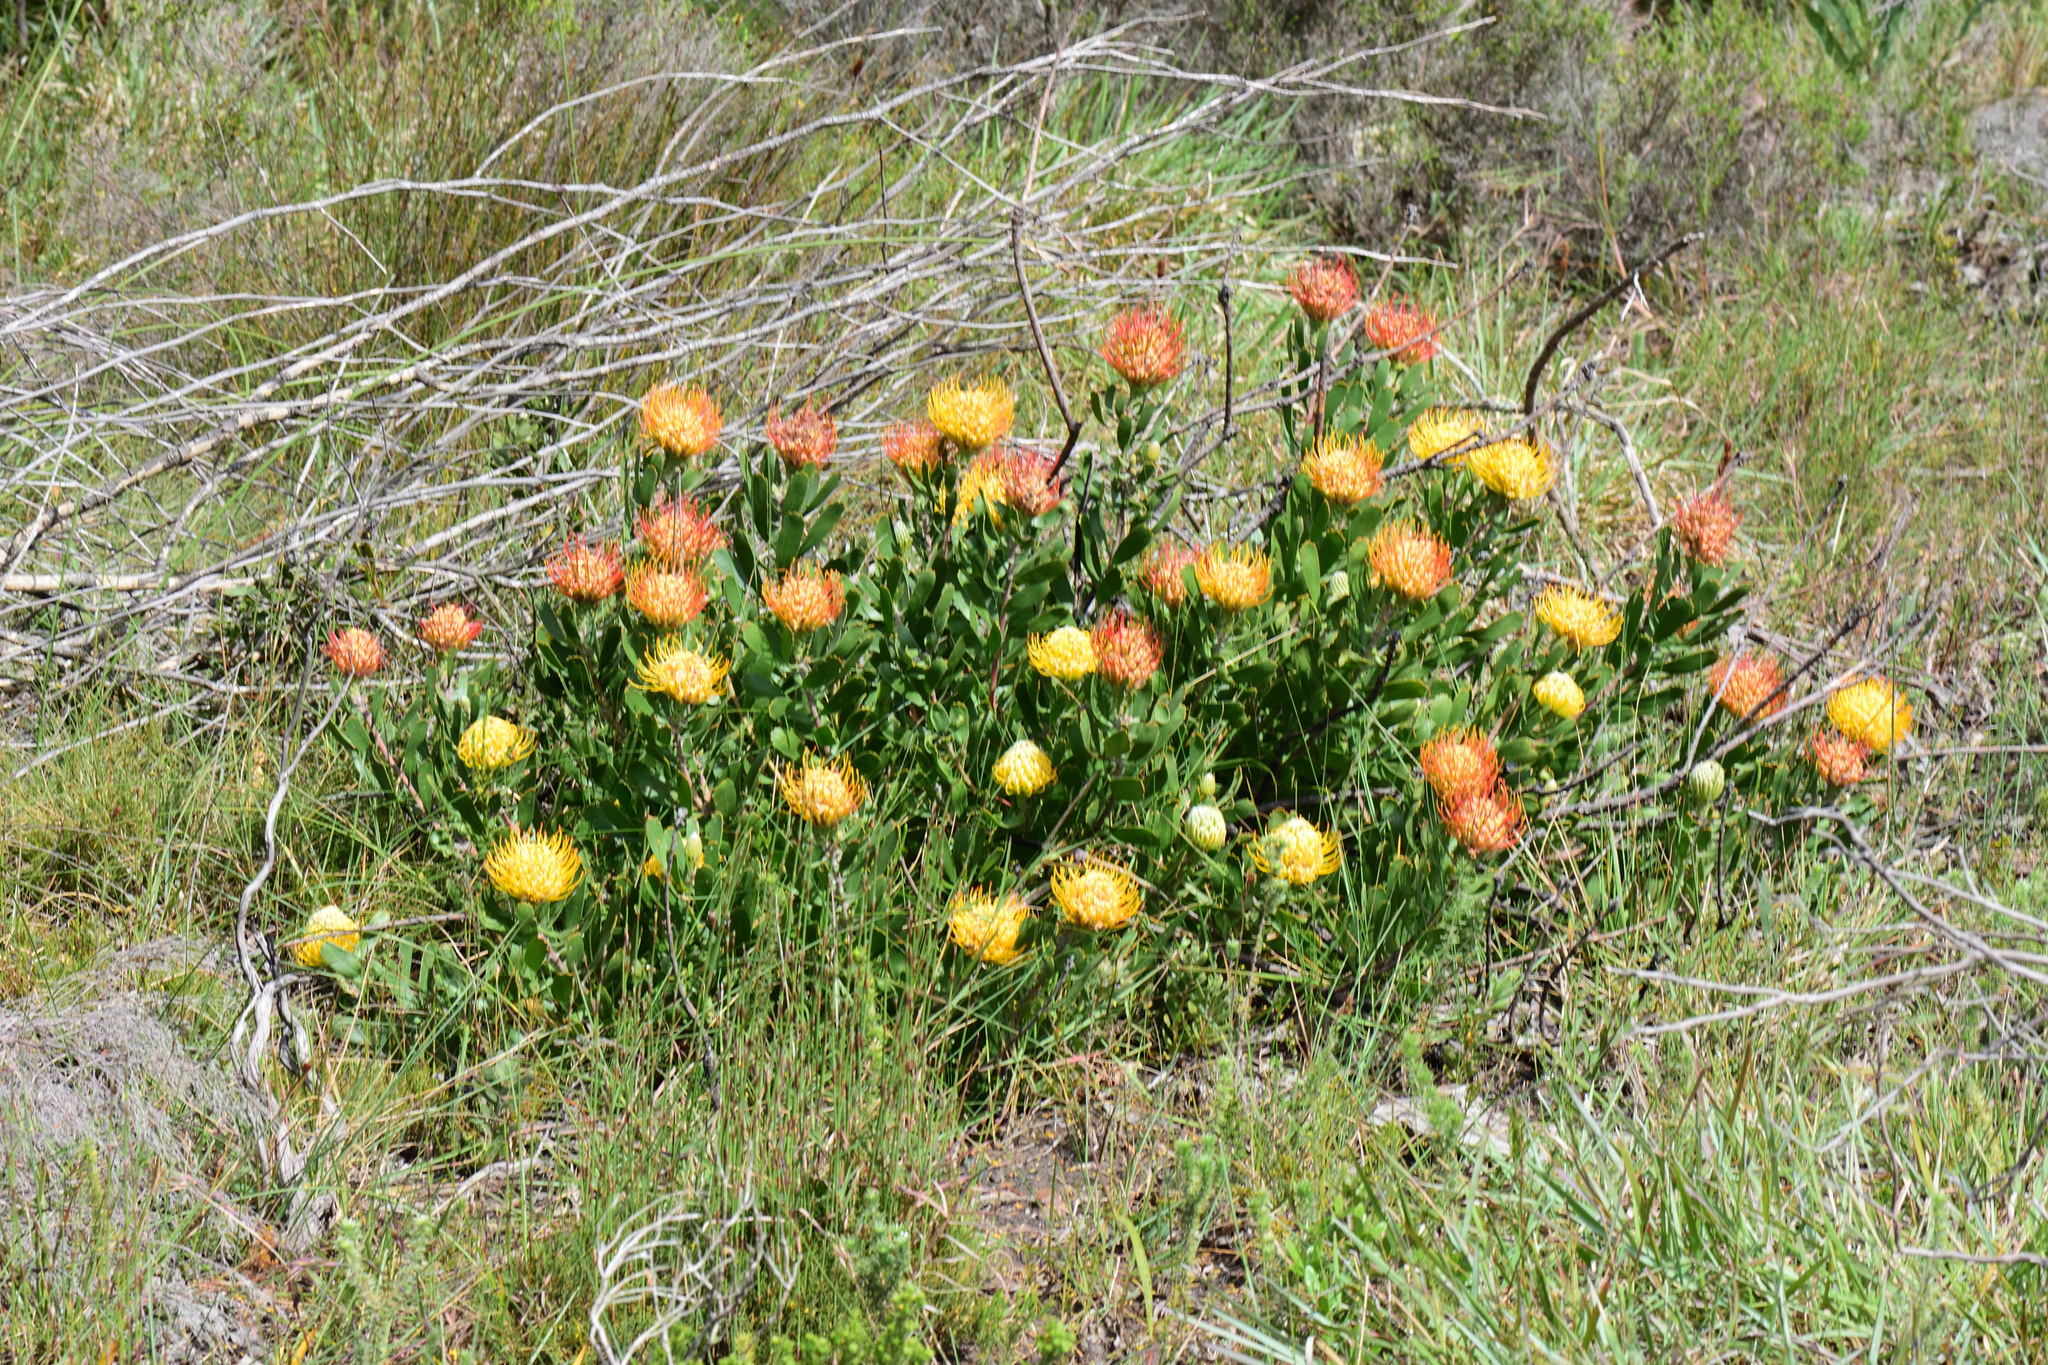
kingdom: Plantae
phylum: Tracheophyta
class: Magnoliopsida
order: Proteales
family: Proteaceae
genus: Leucospermum
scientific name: Leucospermum cuneiforme
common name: Common pincushion
